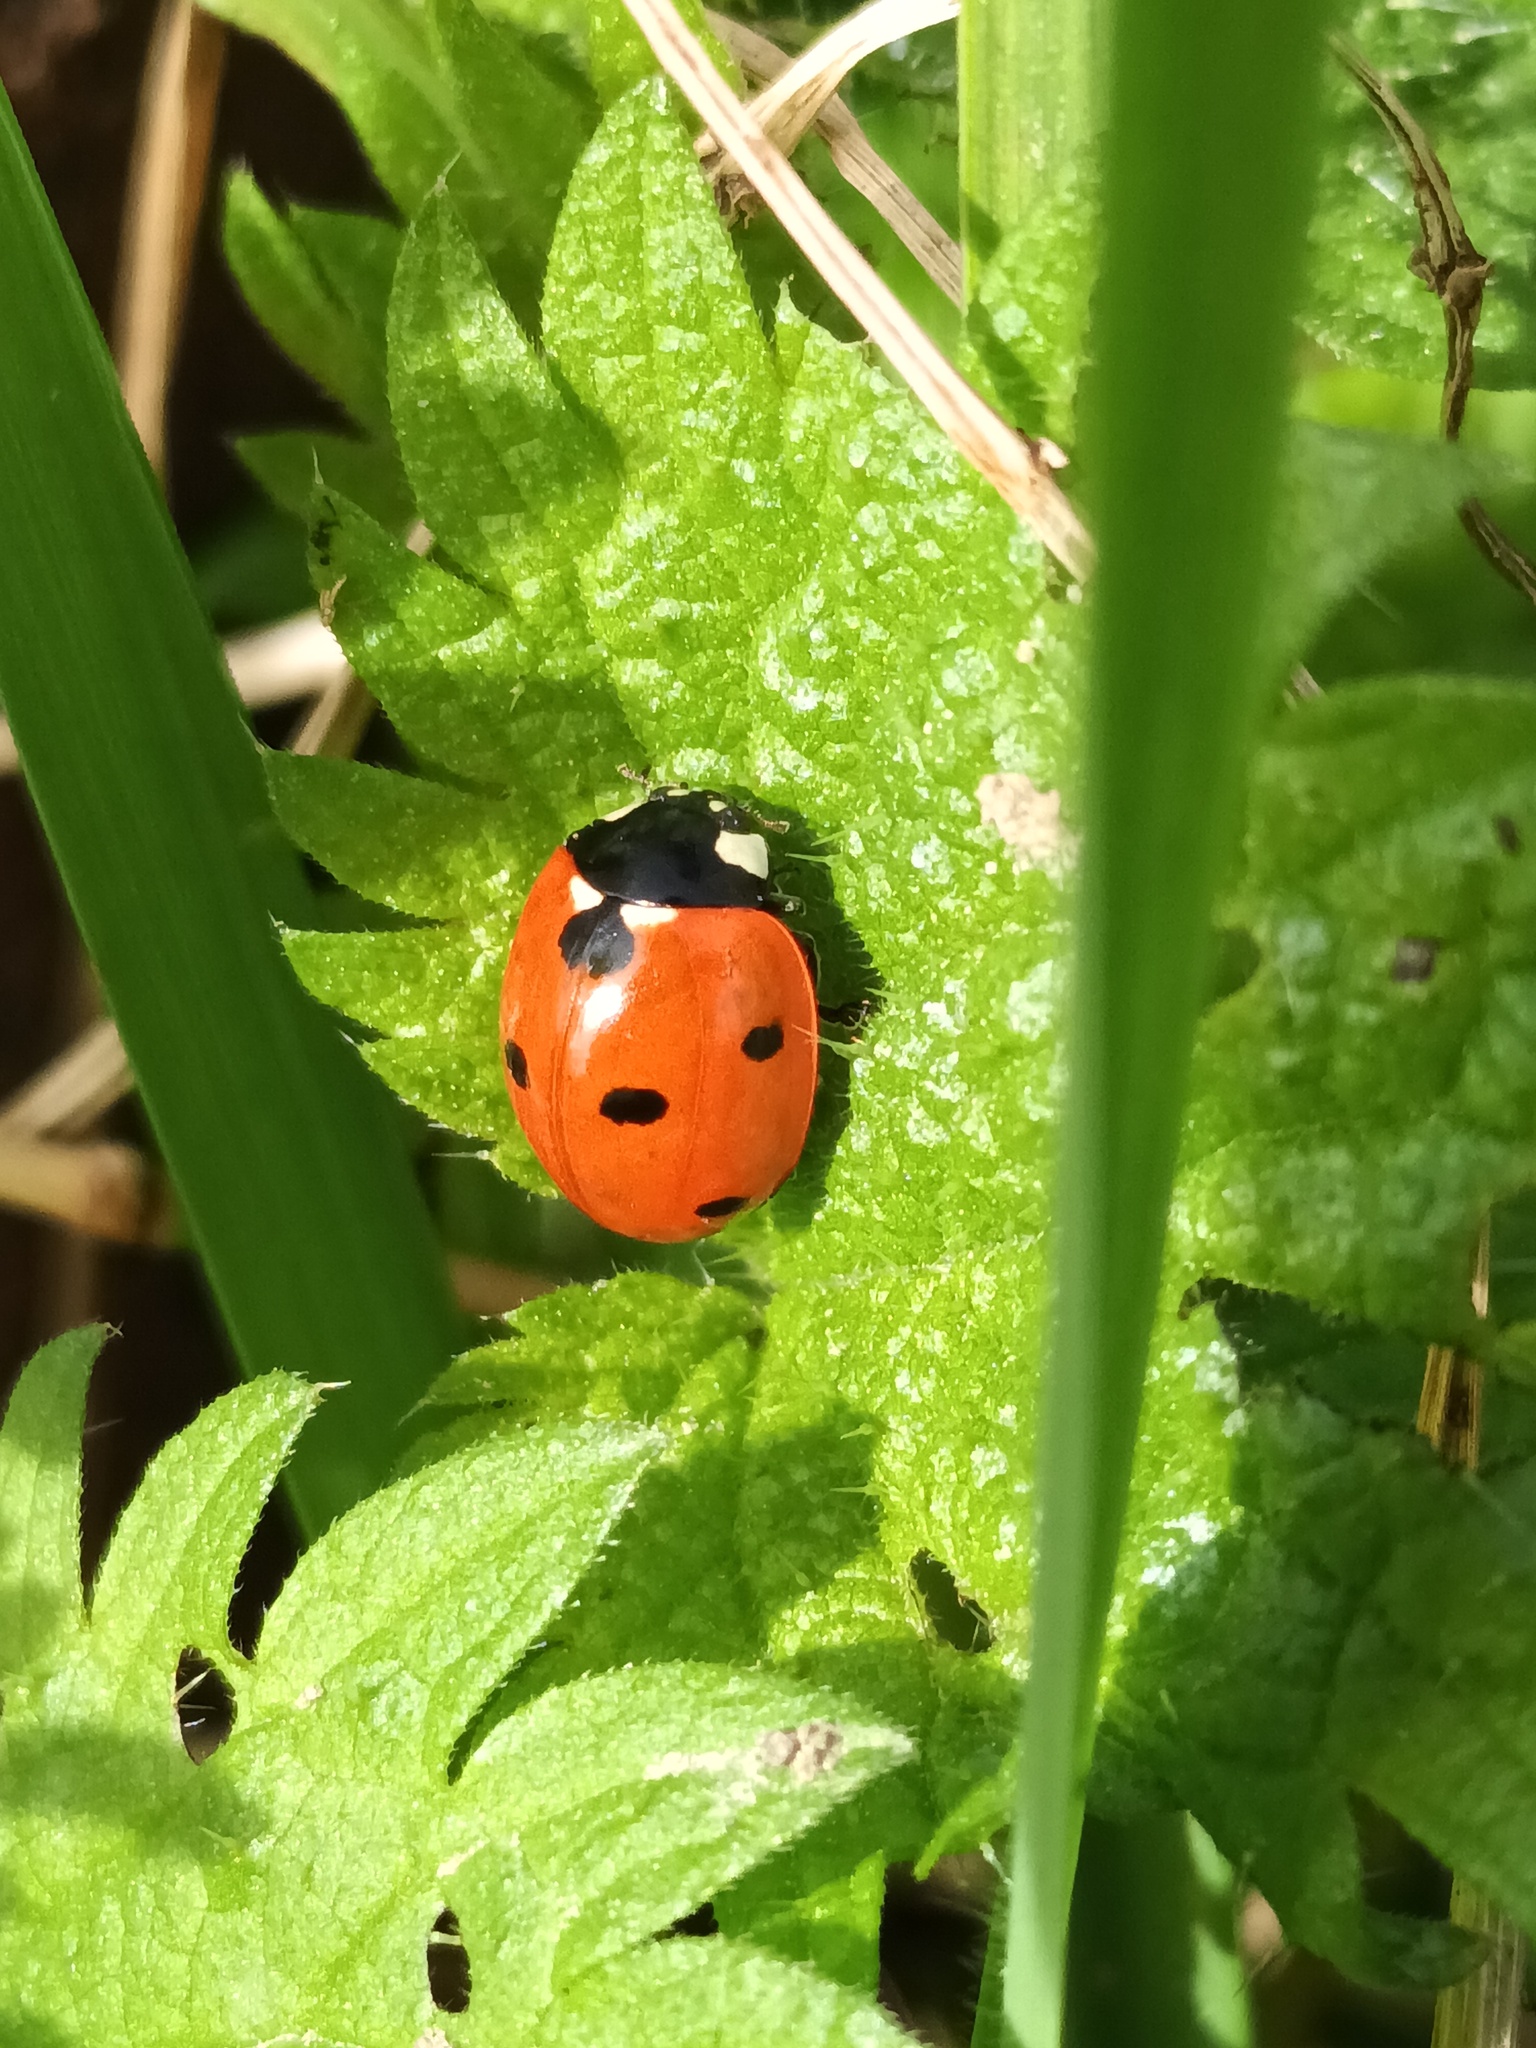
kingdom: Animalia
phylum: Arthropoda
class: Insecta
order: Coleoptera
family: Coccinellidae
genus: Coccinella
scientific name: Coccinella septempunctata
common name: Sevenspotted lady beetle
